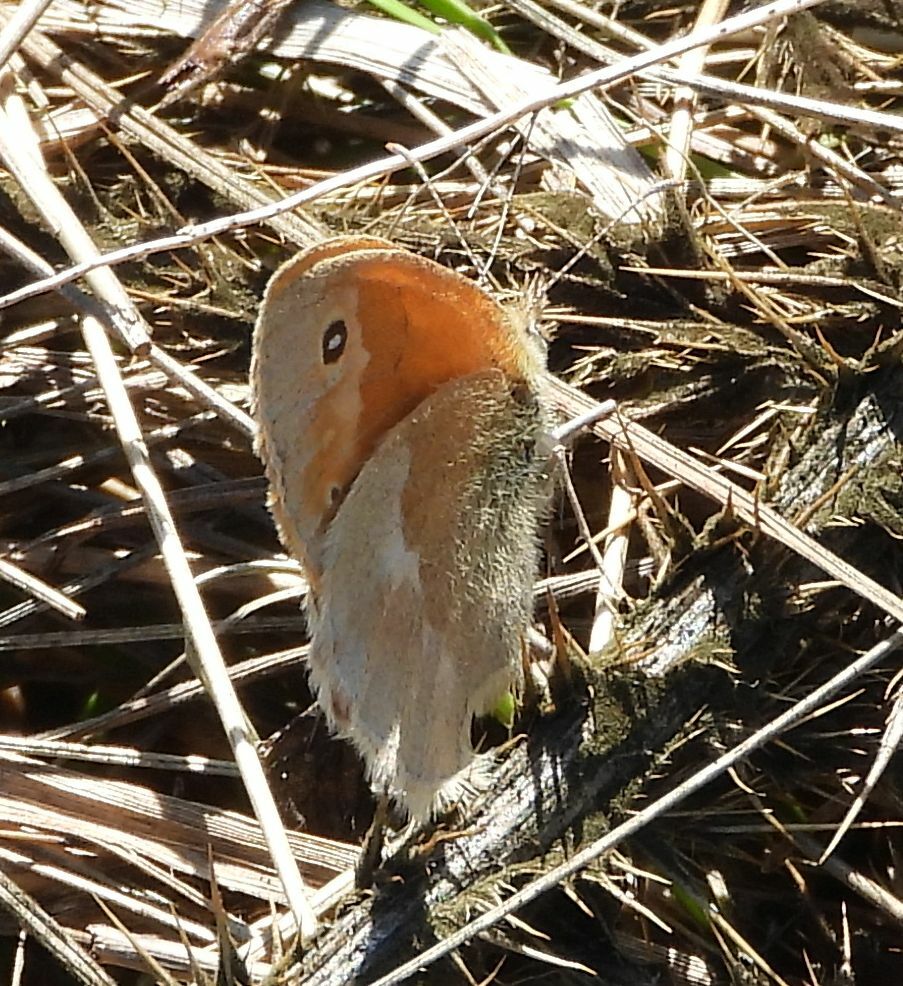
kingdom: Animalia
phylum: Arthropoda
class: Insecta
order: Lepidoptera
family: Nymphalidae
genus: Coenonympha
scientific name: Coenonympha california
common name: Common ringlet
